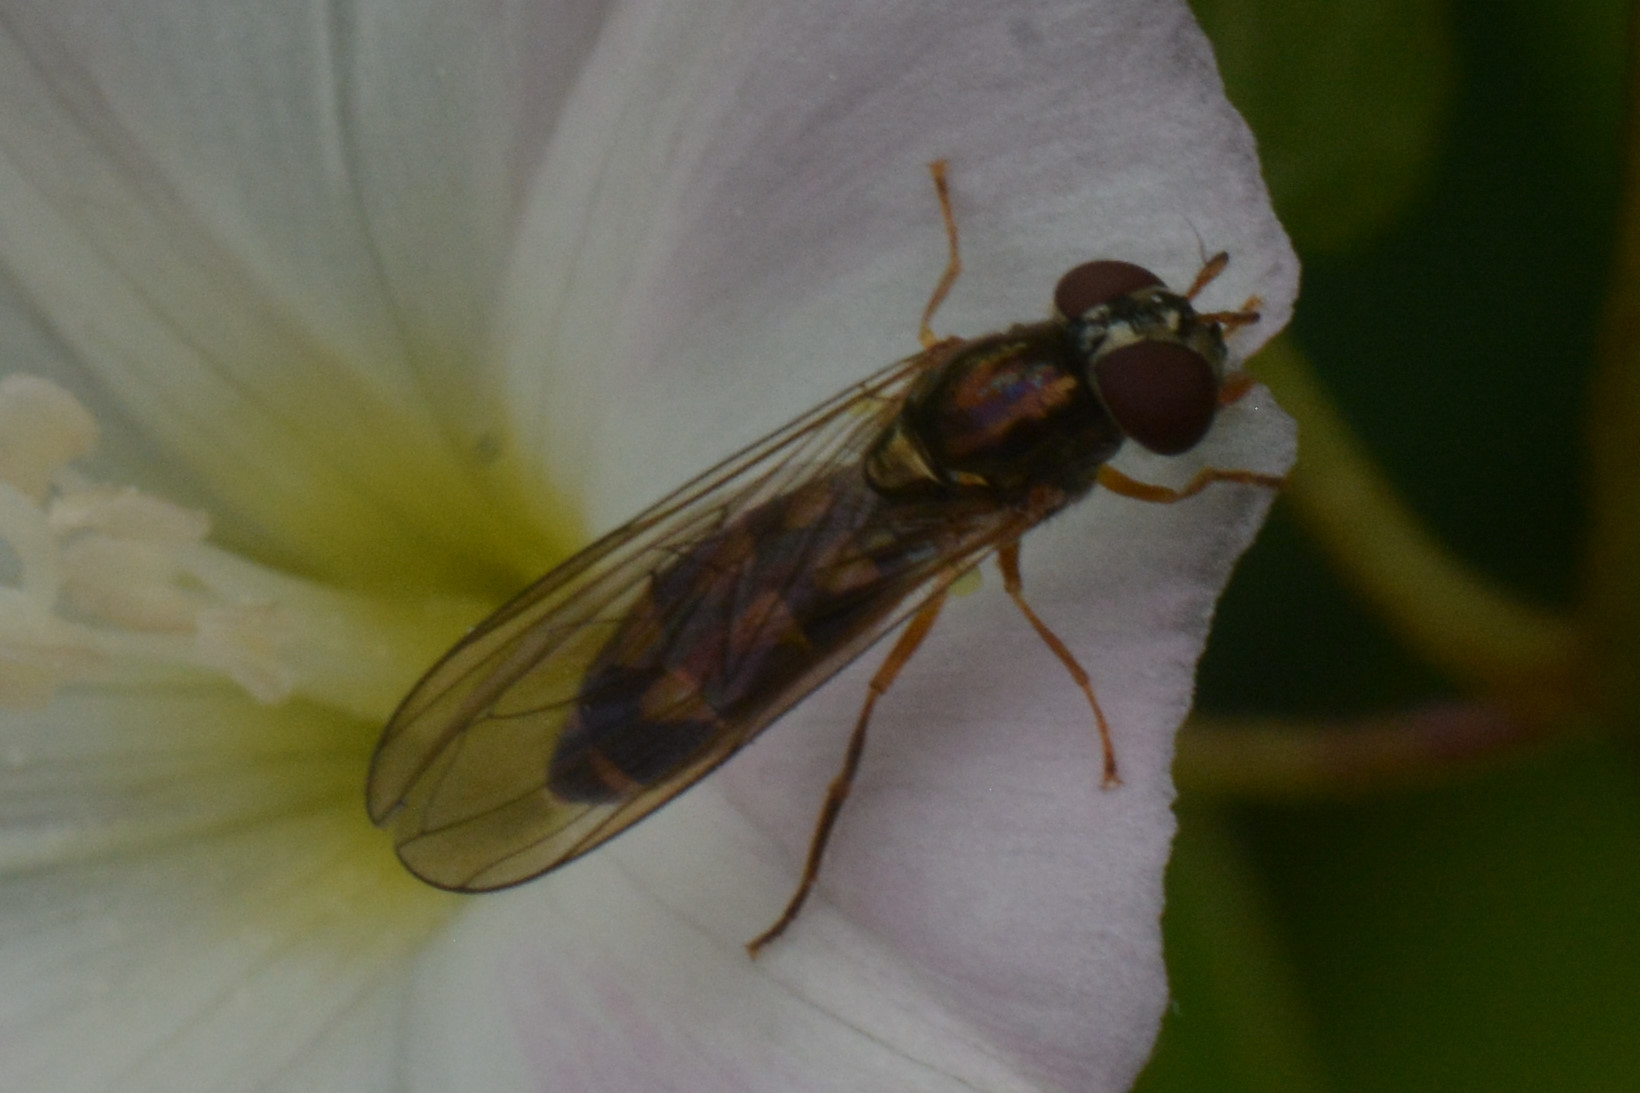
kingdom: Animalia
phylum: Arthropoda
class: Insecta
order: Diptera
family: Syrphidae
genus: Melanostoma
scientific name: Melanostoma scalare
